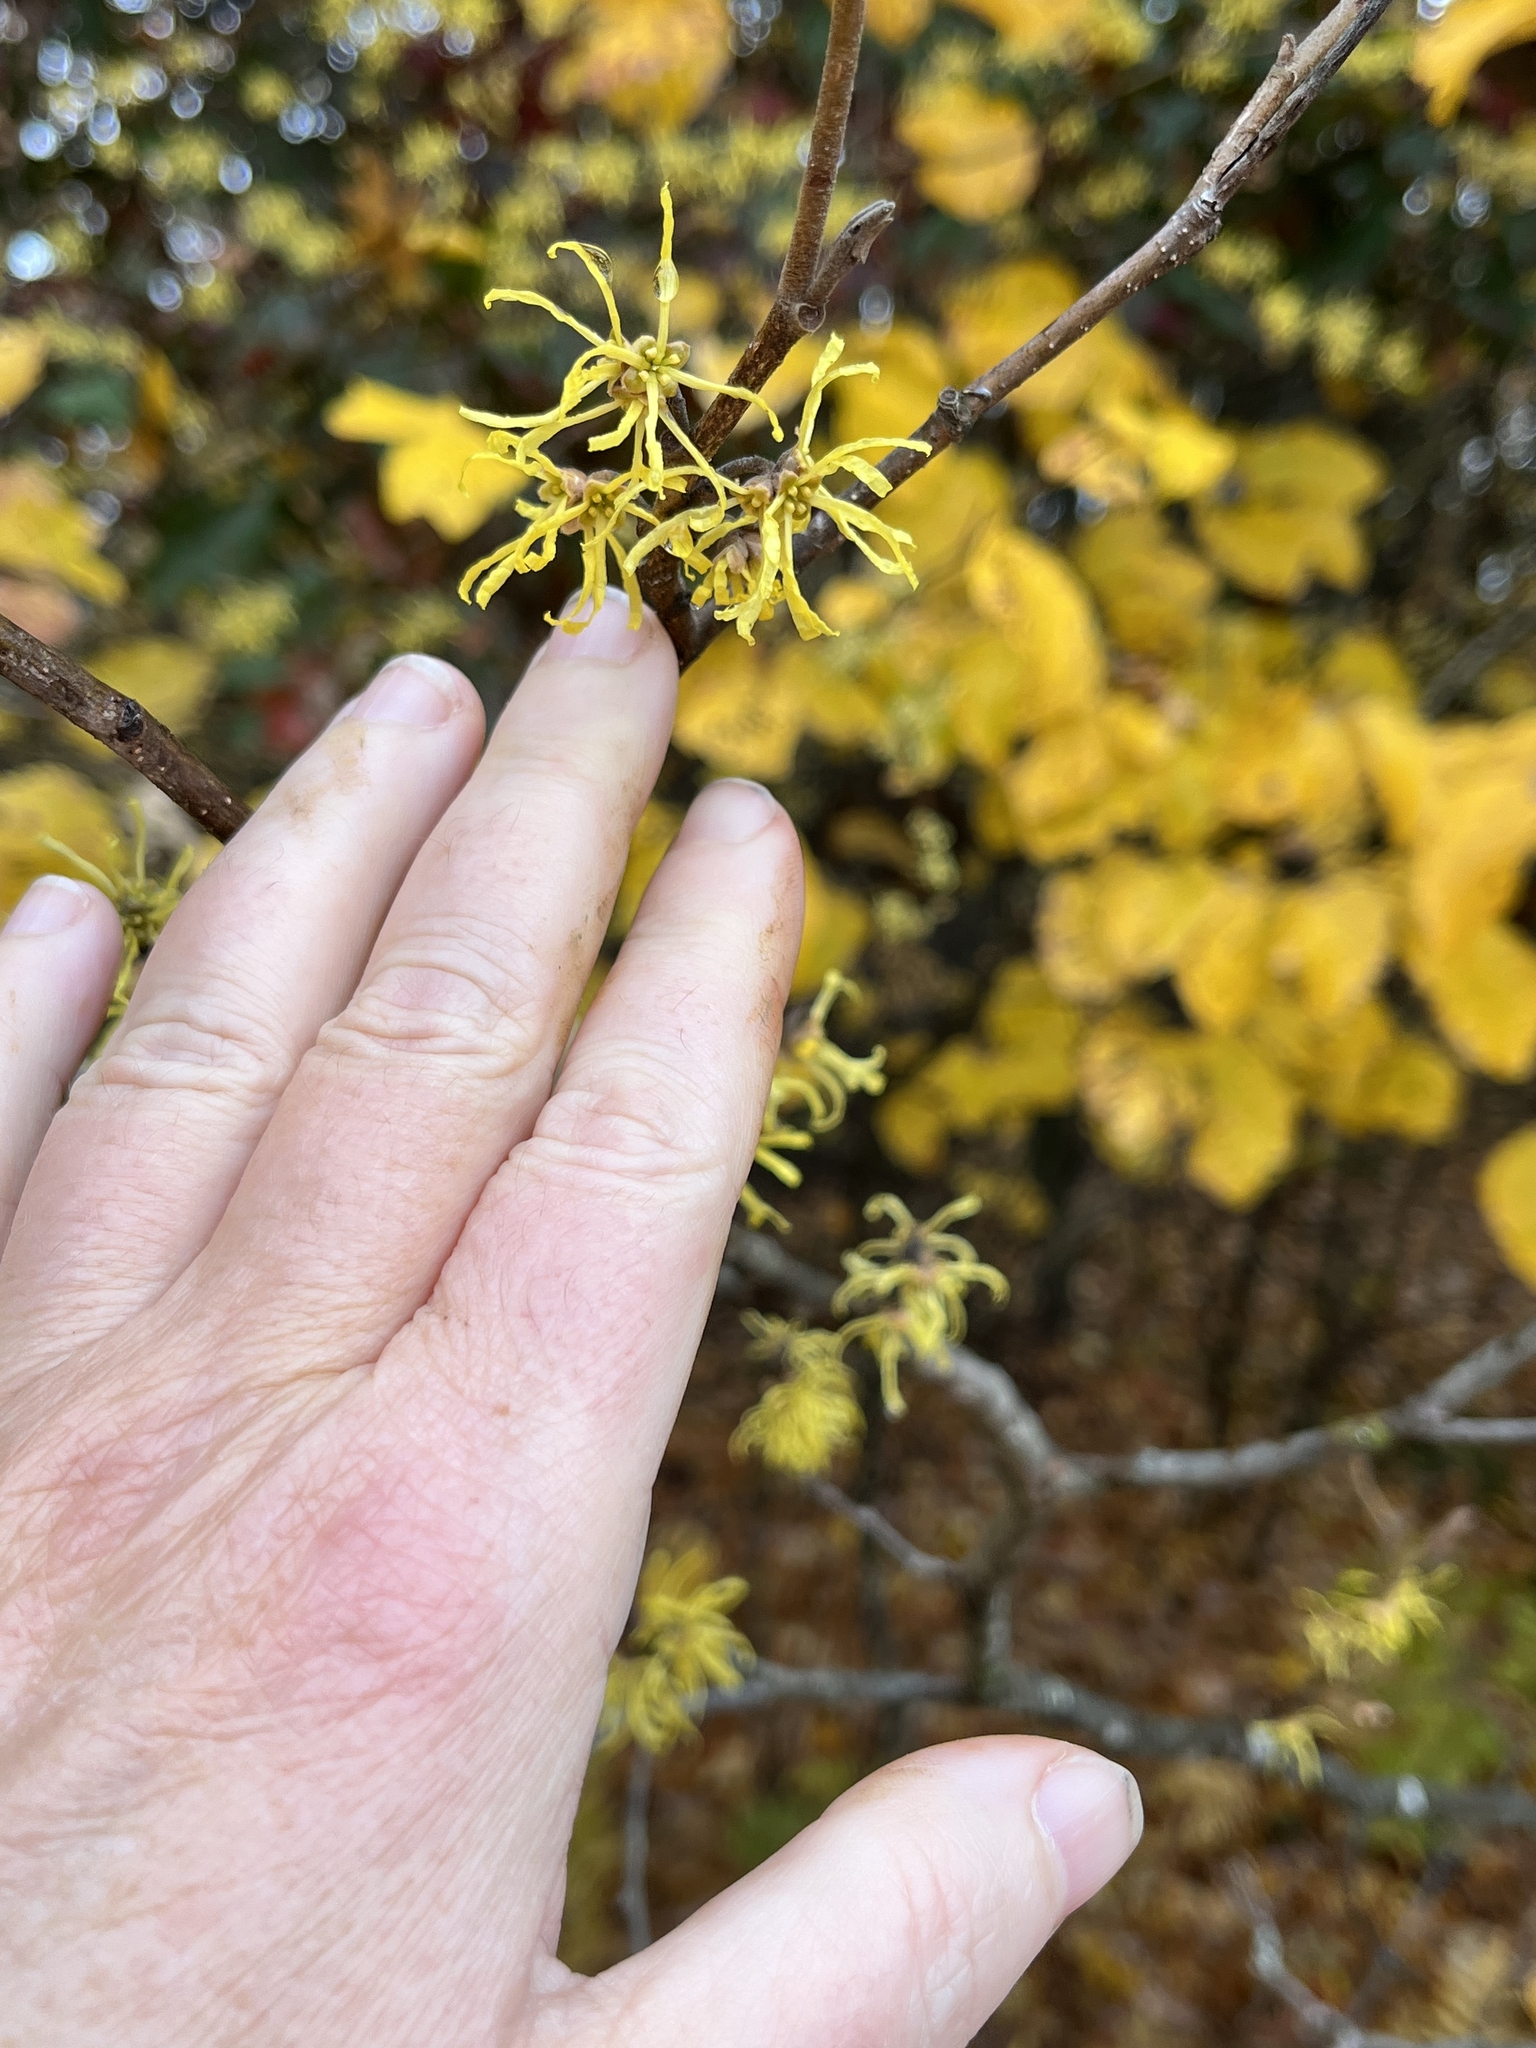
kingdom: Plantae
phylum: Tracheophyta
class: Magnoliopsida
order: Saxifragales
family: Hamamelidaceae
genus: Hamamelis
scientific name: Hamamelis virginiana
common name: Witch-hazel
